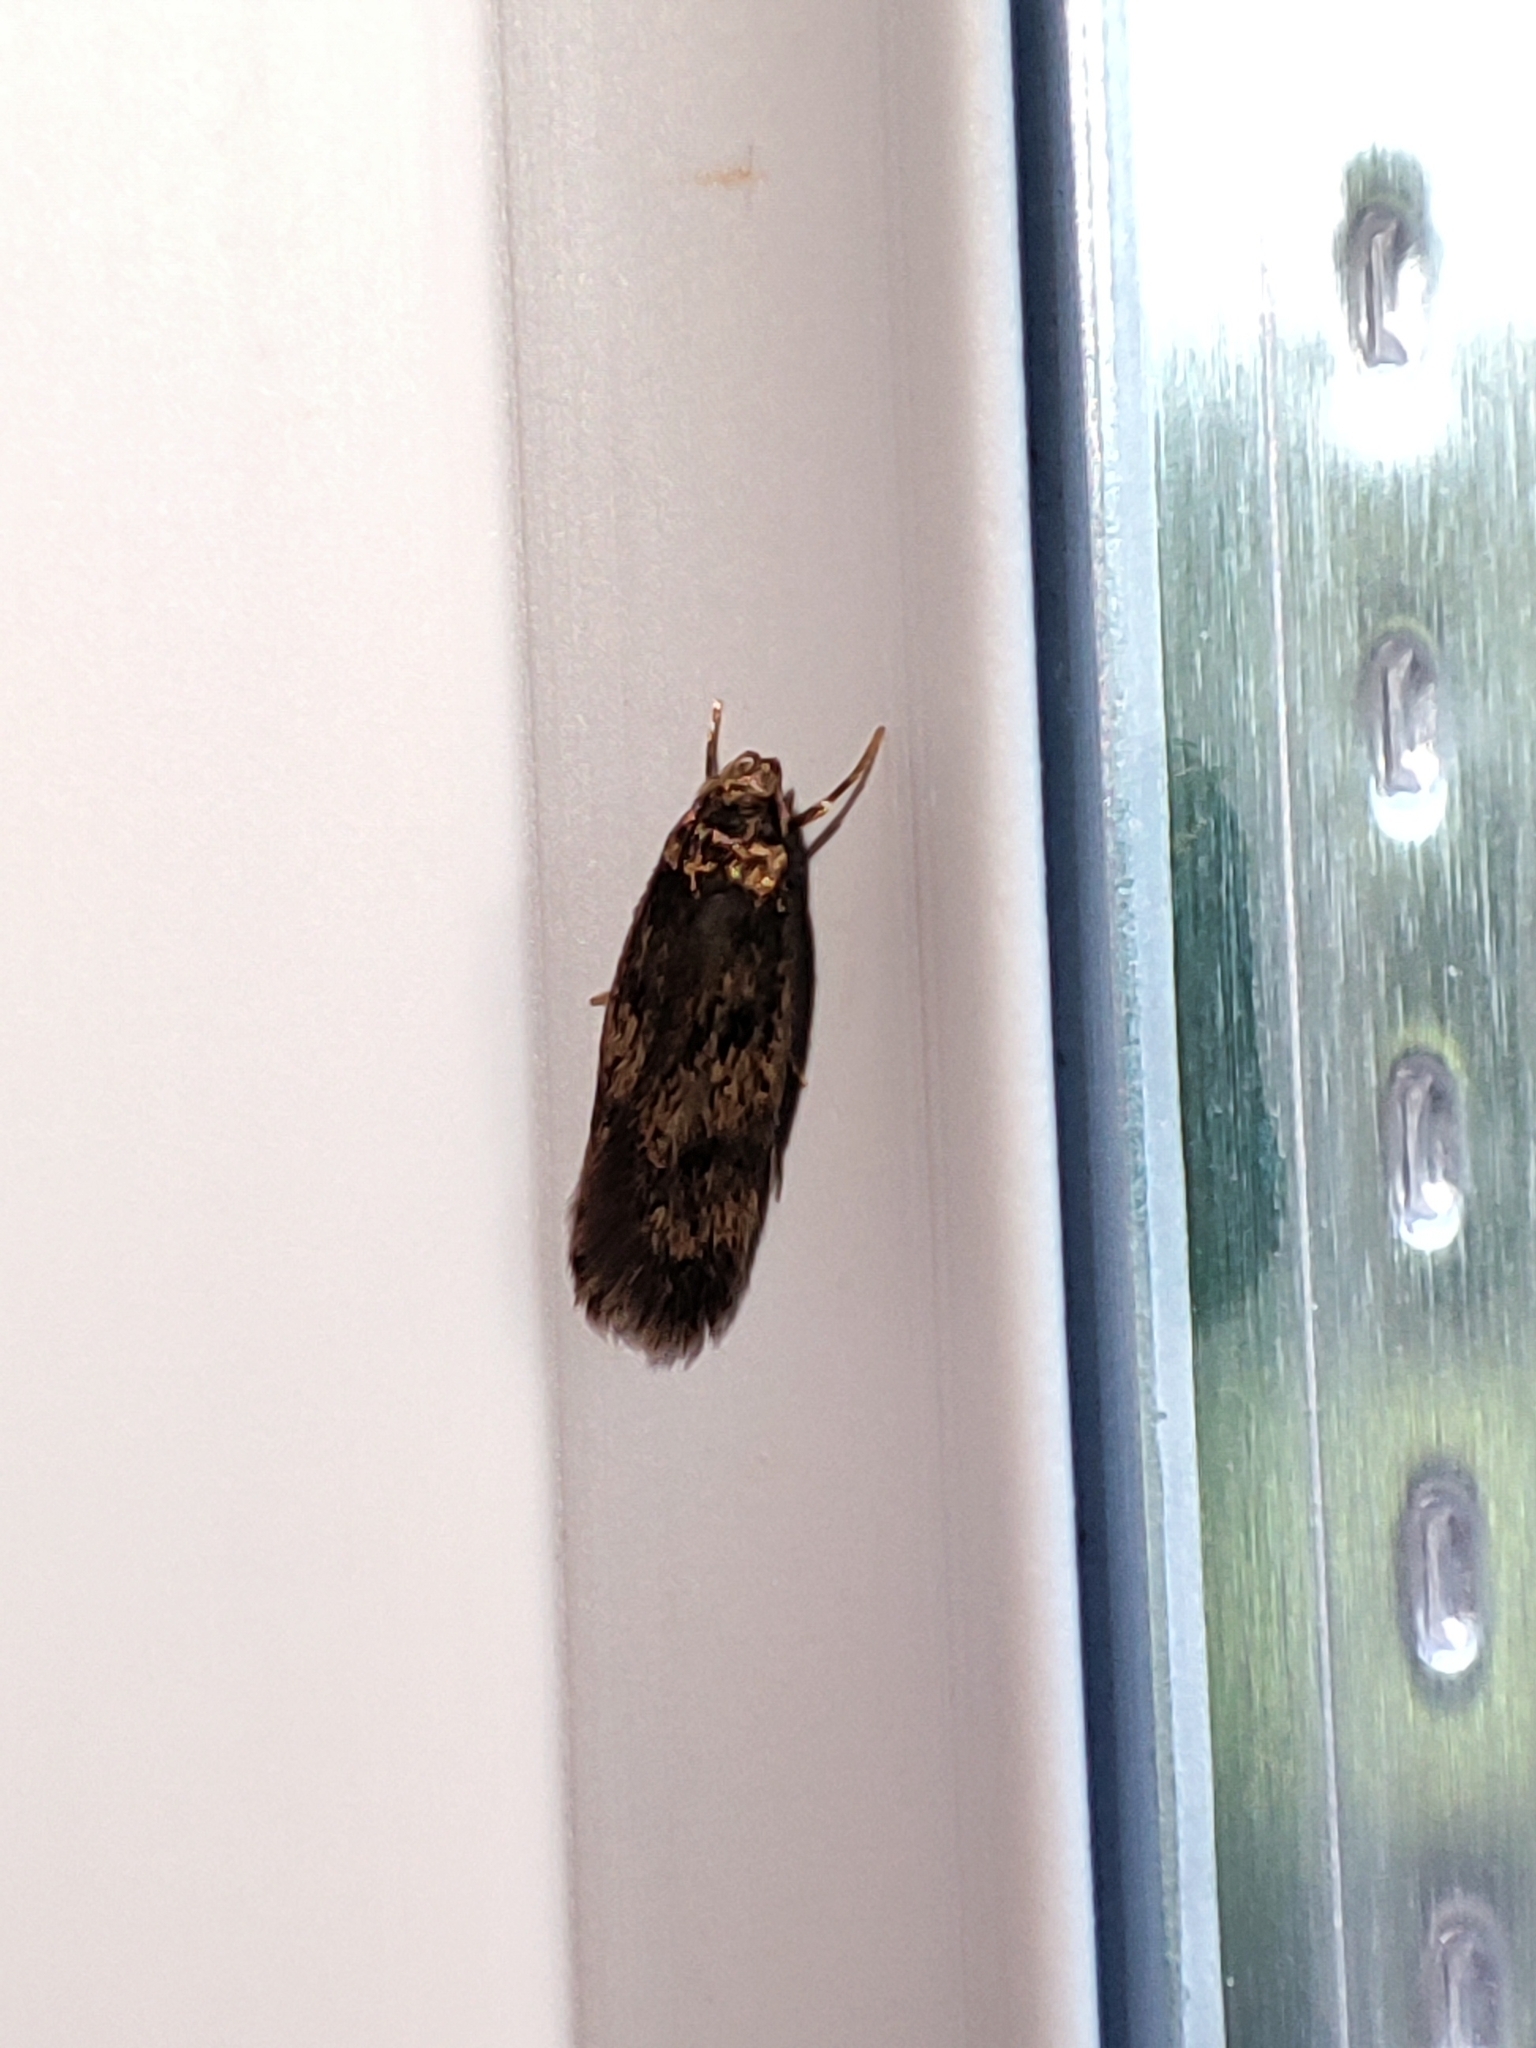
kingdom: Animalia
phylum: Arthropoda
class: Insecta
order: Lepidoptera
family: Oecophoridae
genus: Hofmannophila
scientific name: Hofmannophila pseudospretella
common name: Brown house moth
